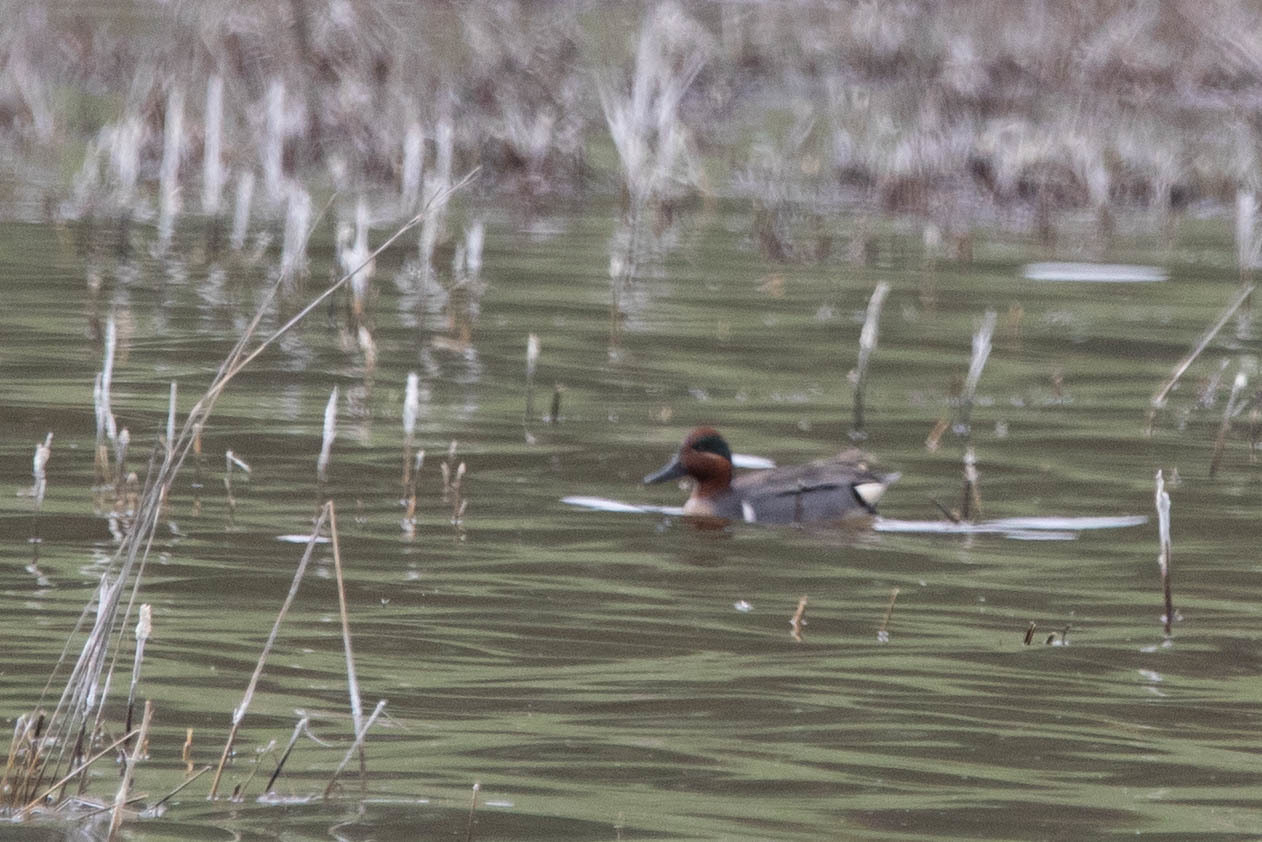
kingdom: Animalia
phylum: Chordata
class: Aves
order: Anseriformes
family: Anatidae
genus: Anas
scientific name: Anas carolinensis
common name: Green-winged teal
